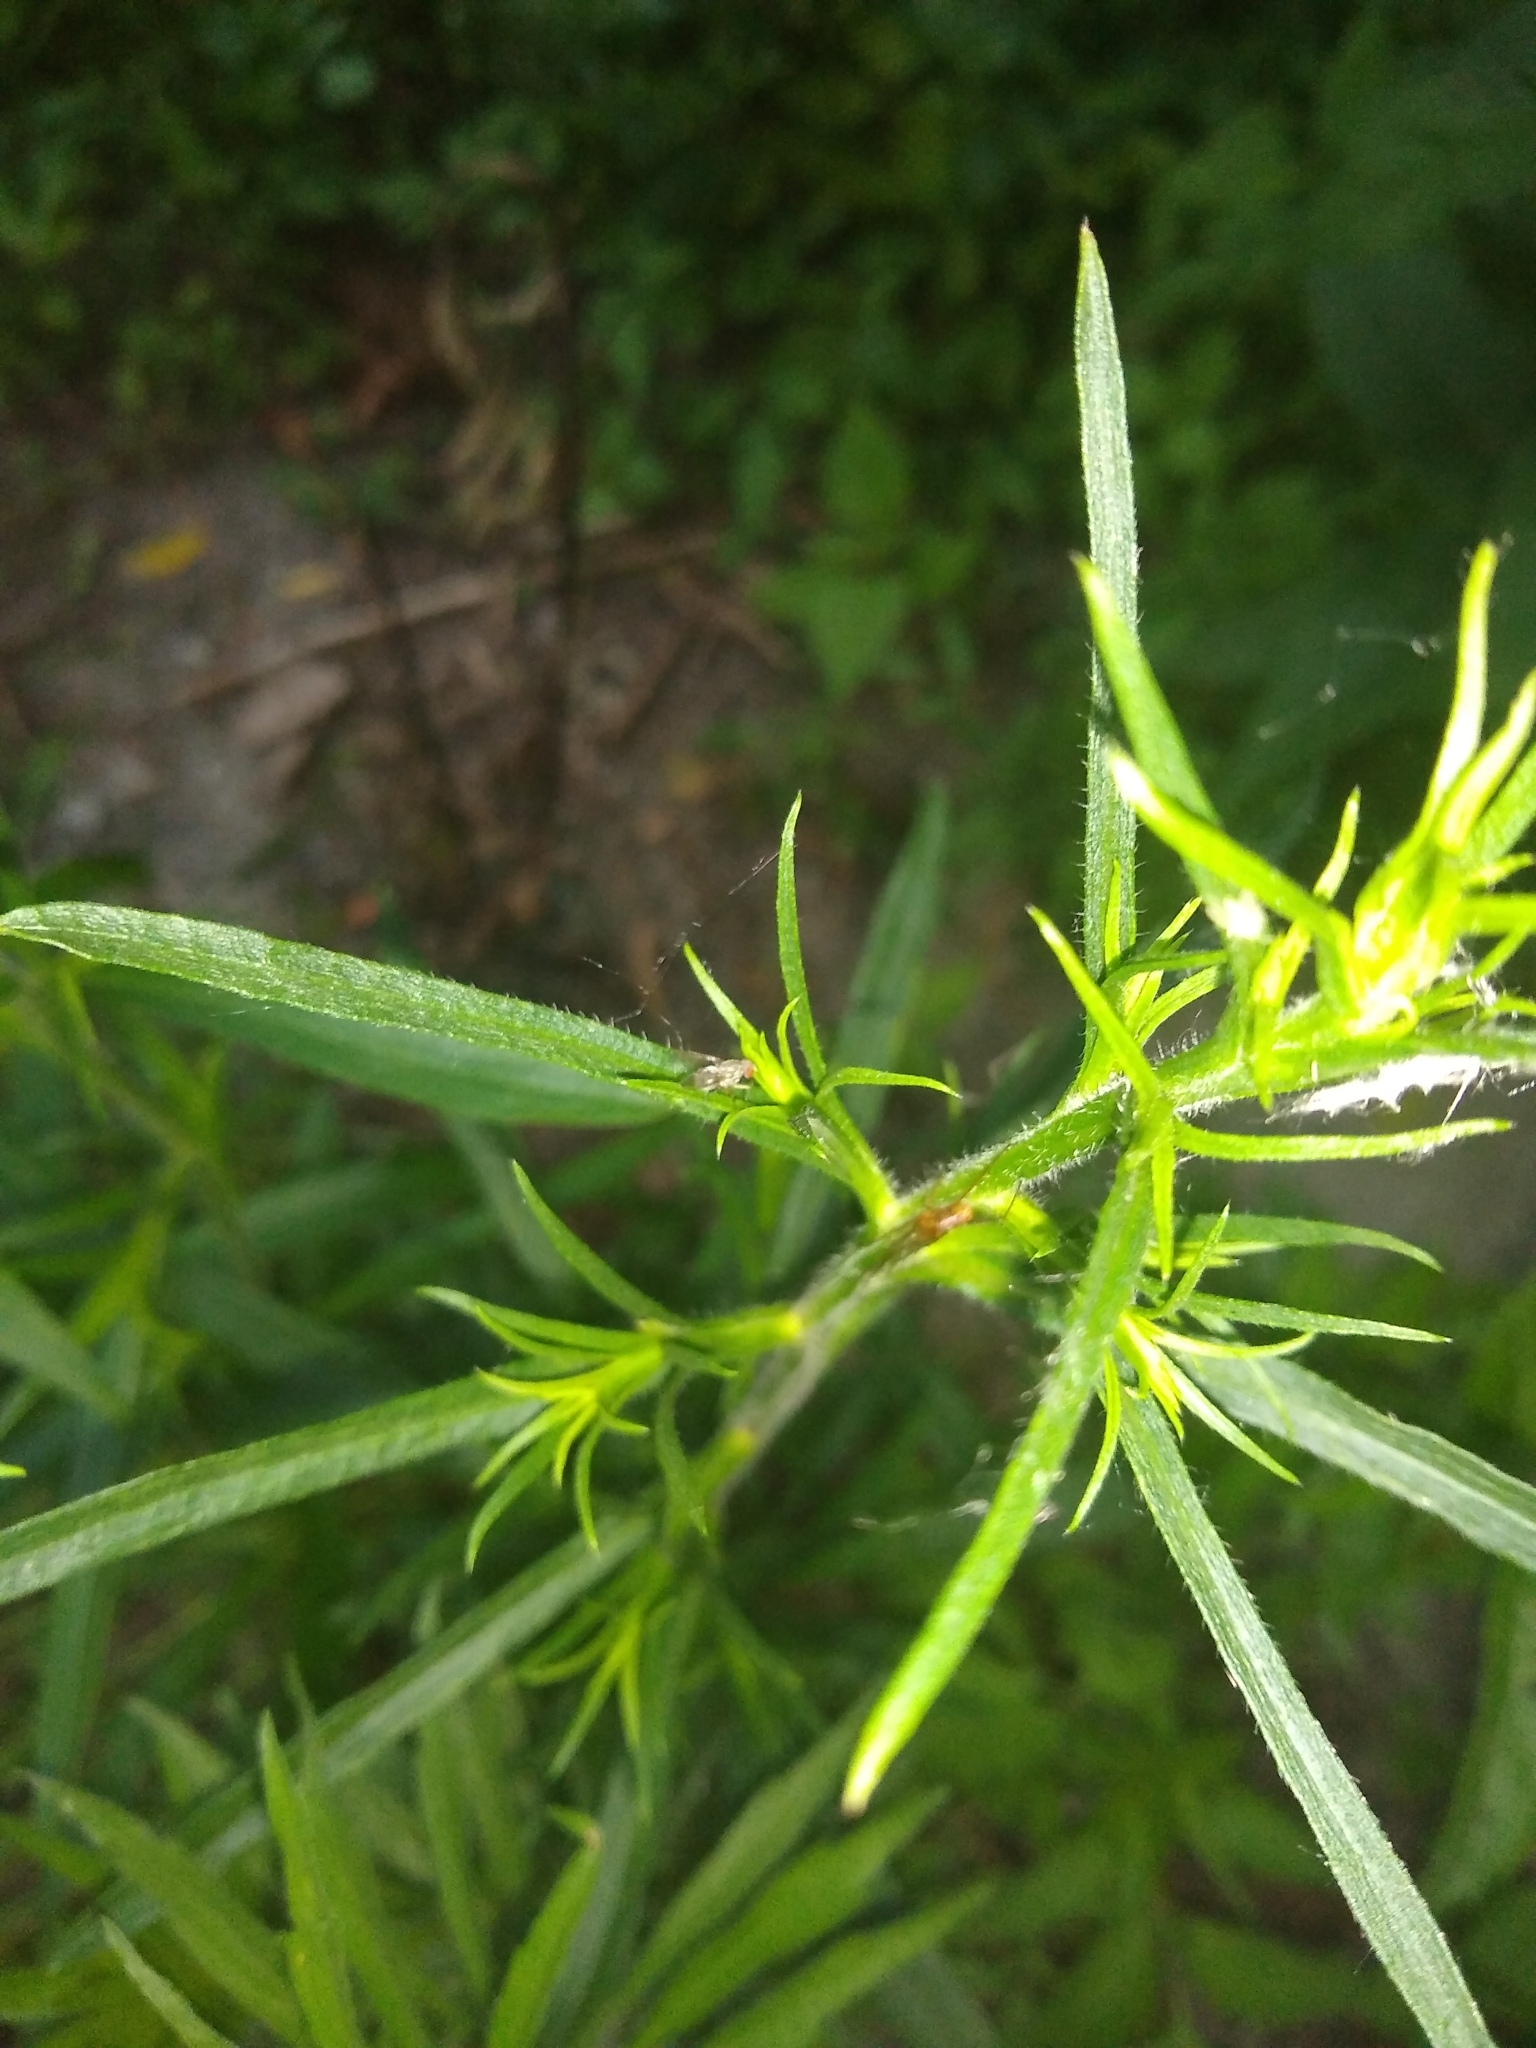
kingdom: Plantae
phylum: Tracheophyta
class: Magnoliopsida
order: Asterales
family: Asteraceae
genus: Symphyotrichum
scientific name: Symphyotrichum pilosum
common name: Awl aster
